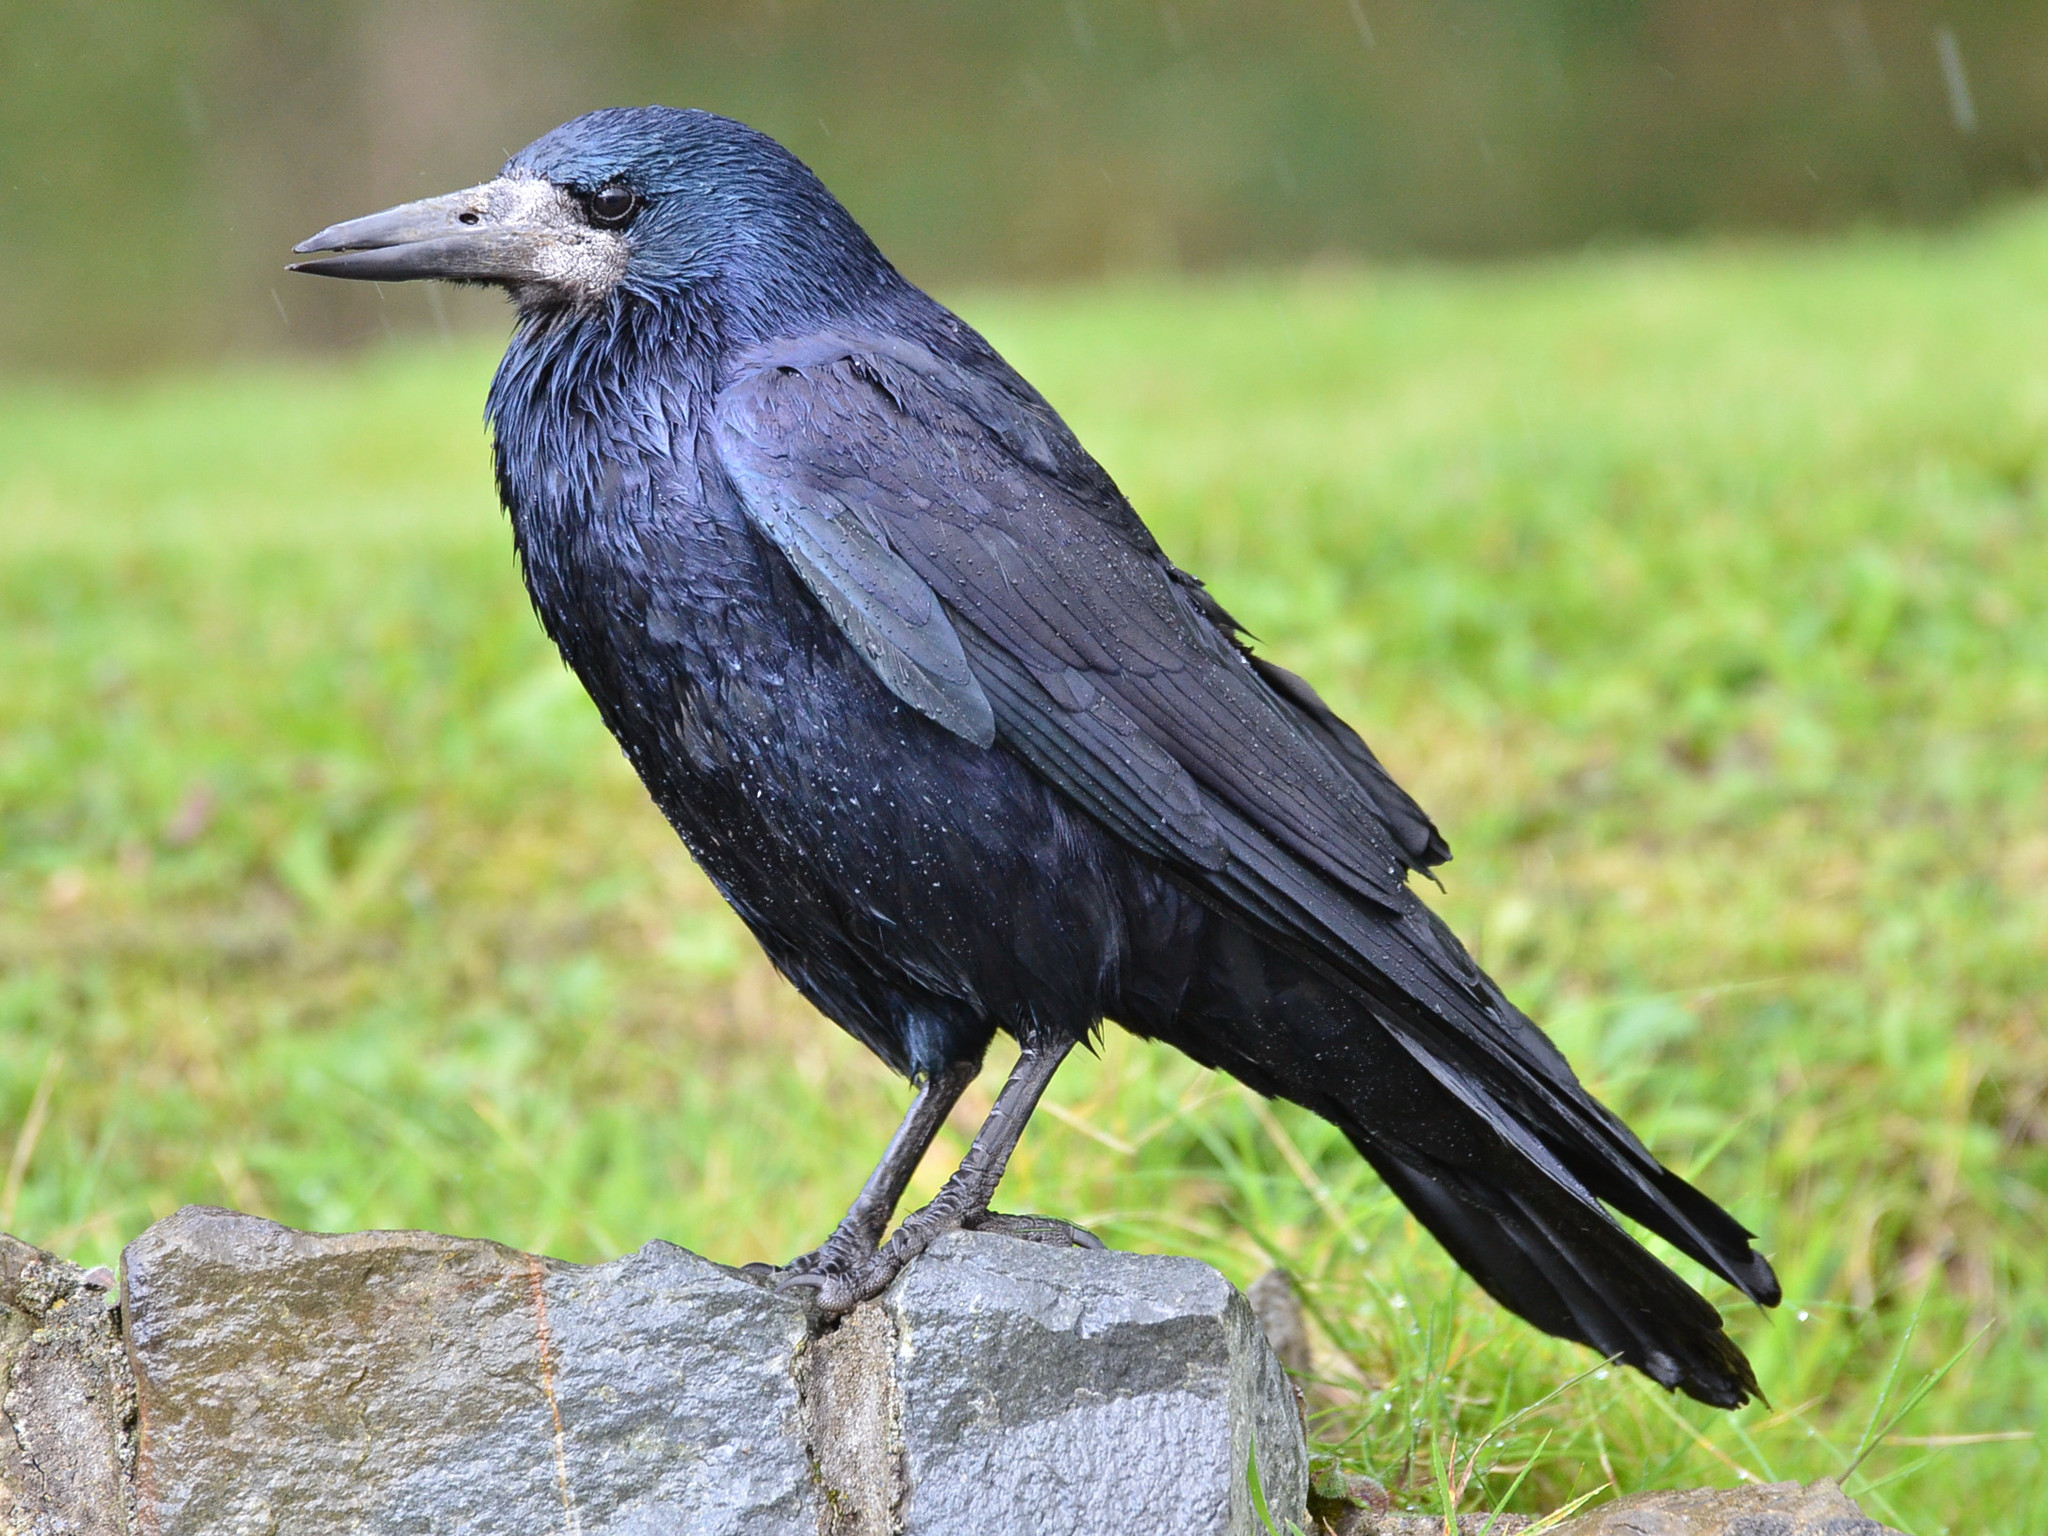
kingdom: Animalia
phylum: Chordata
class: Aves
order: Passeriformes
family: Corvidae
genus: Corvus
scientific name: Corvus frugilegus
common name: Rook
